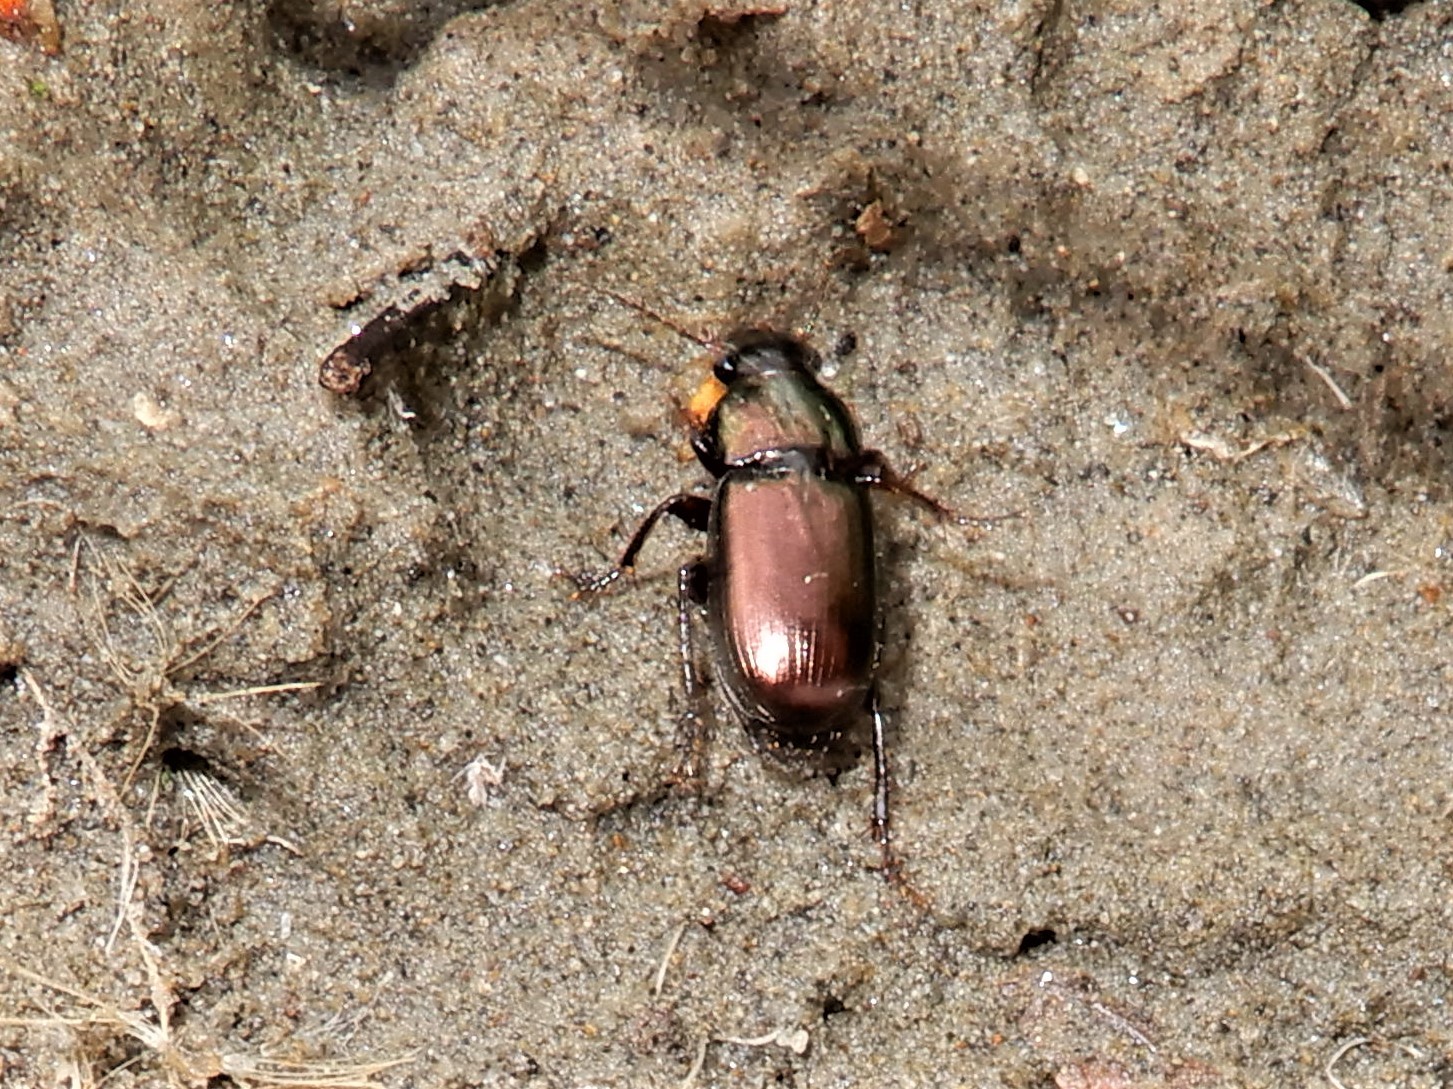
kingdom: Animalia
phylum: Arthropoda
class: Insecta
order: Coleoptera
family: Carabidae
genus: Harpalus
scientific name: Harpalus affinis
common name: Polychrome harp ground beetle
